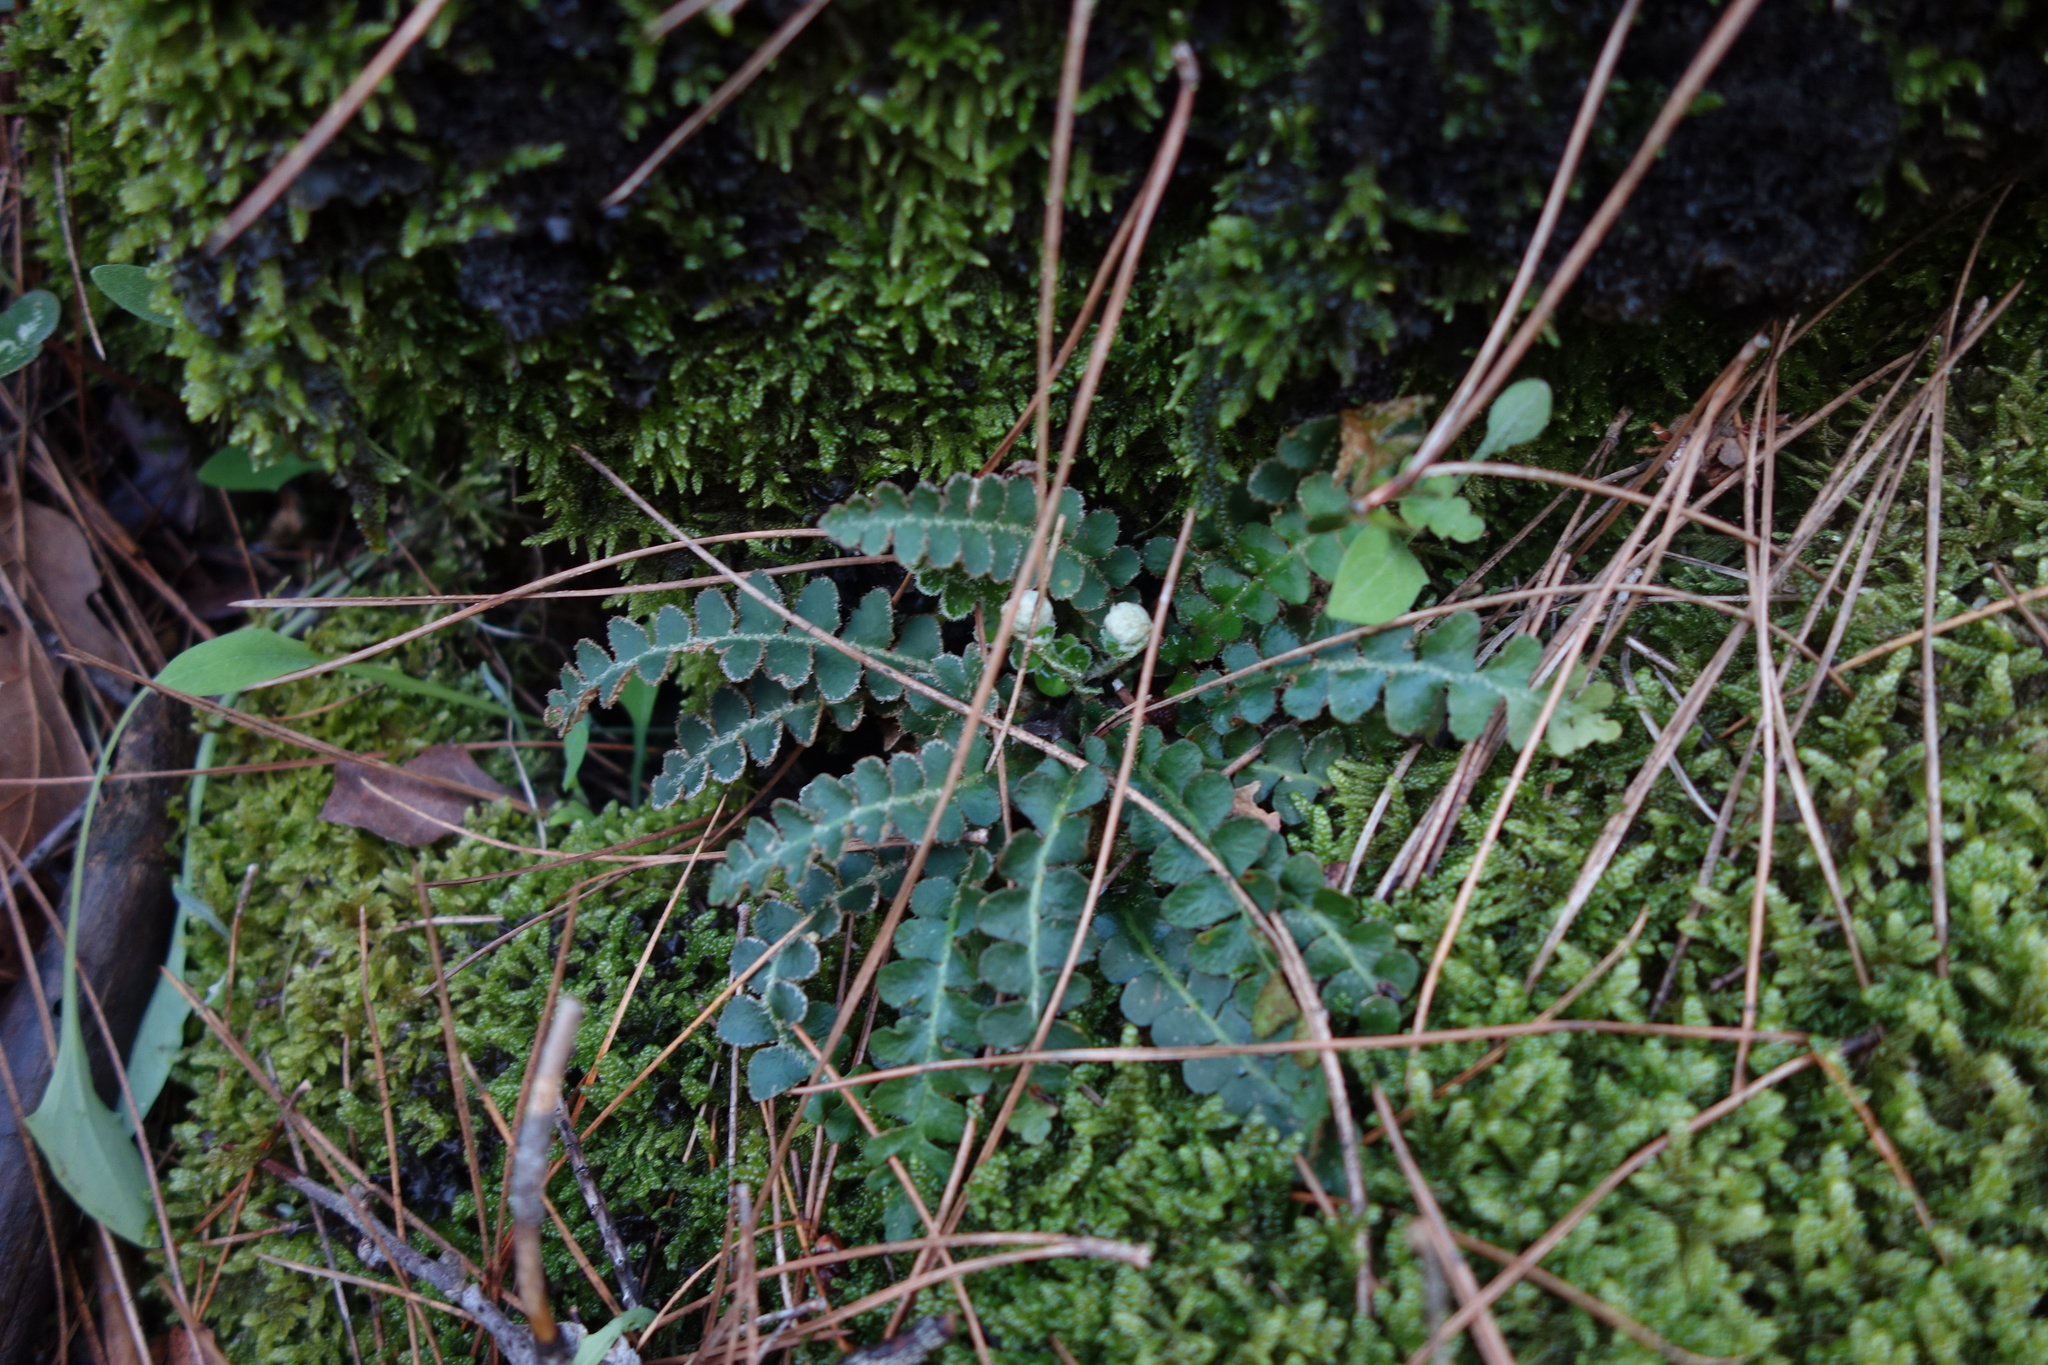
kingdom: Plantae
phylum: Tracheophyta
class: Polypodiopsida
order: Polypodiales
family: Aspleniaceae
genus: Asplenium
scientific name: Asplenium ceterach
